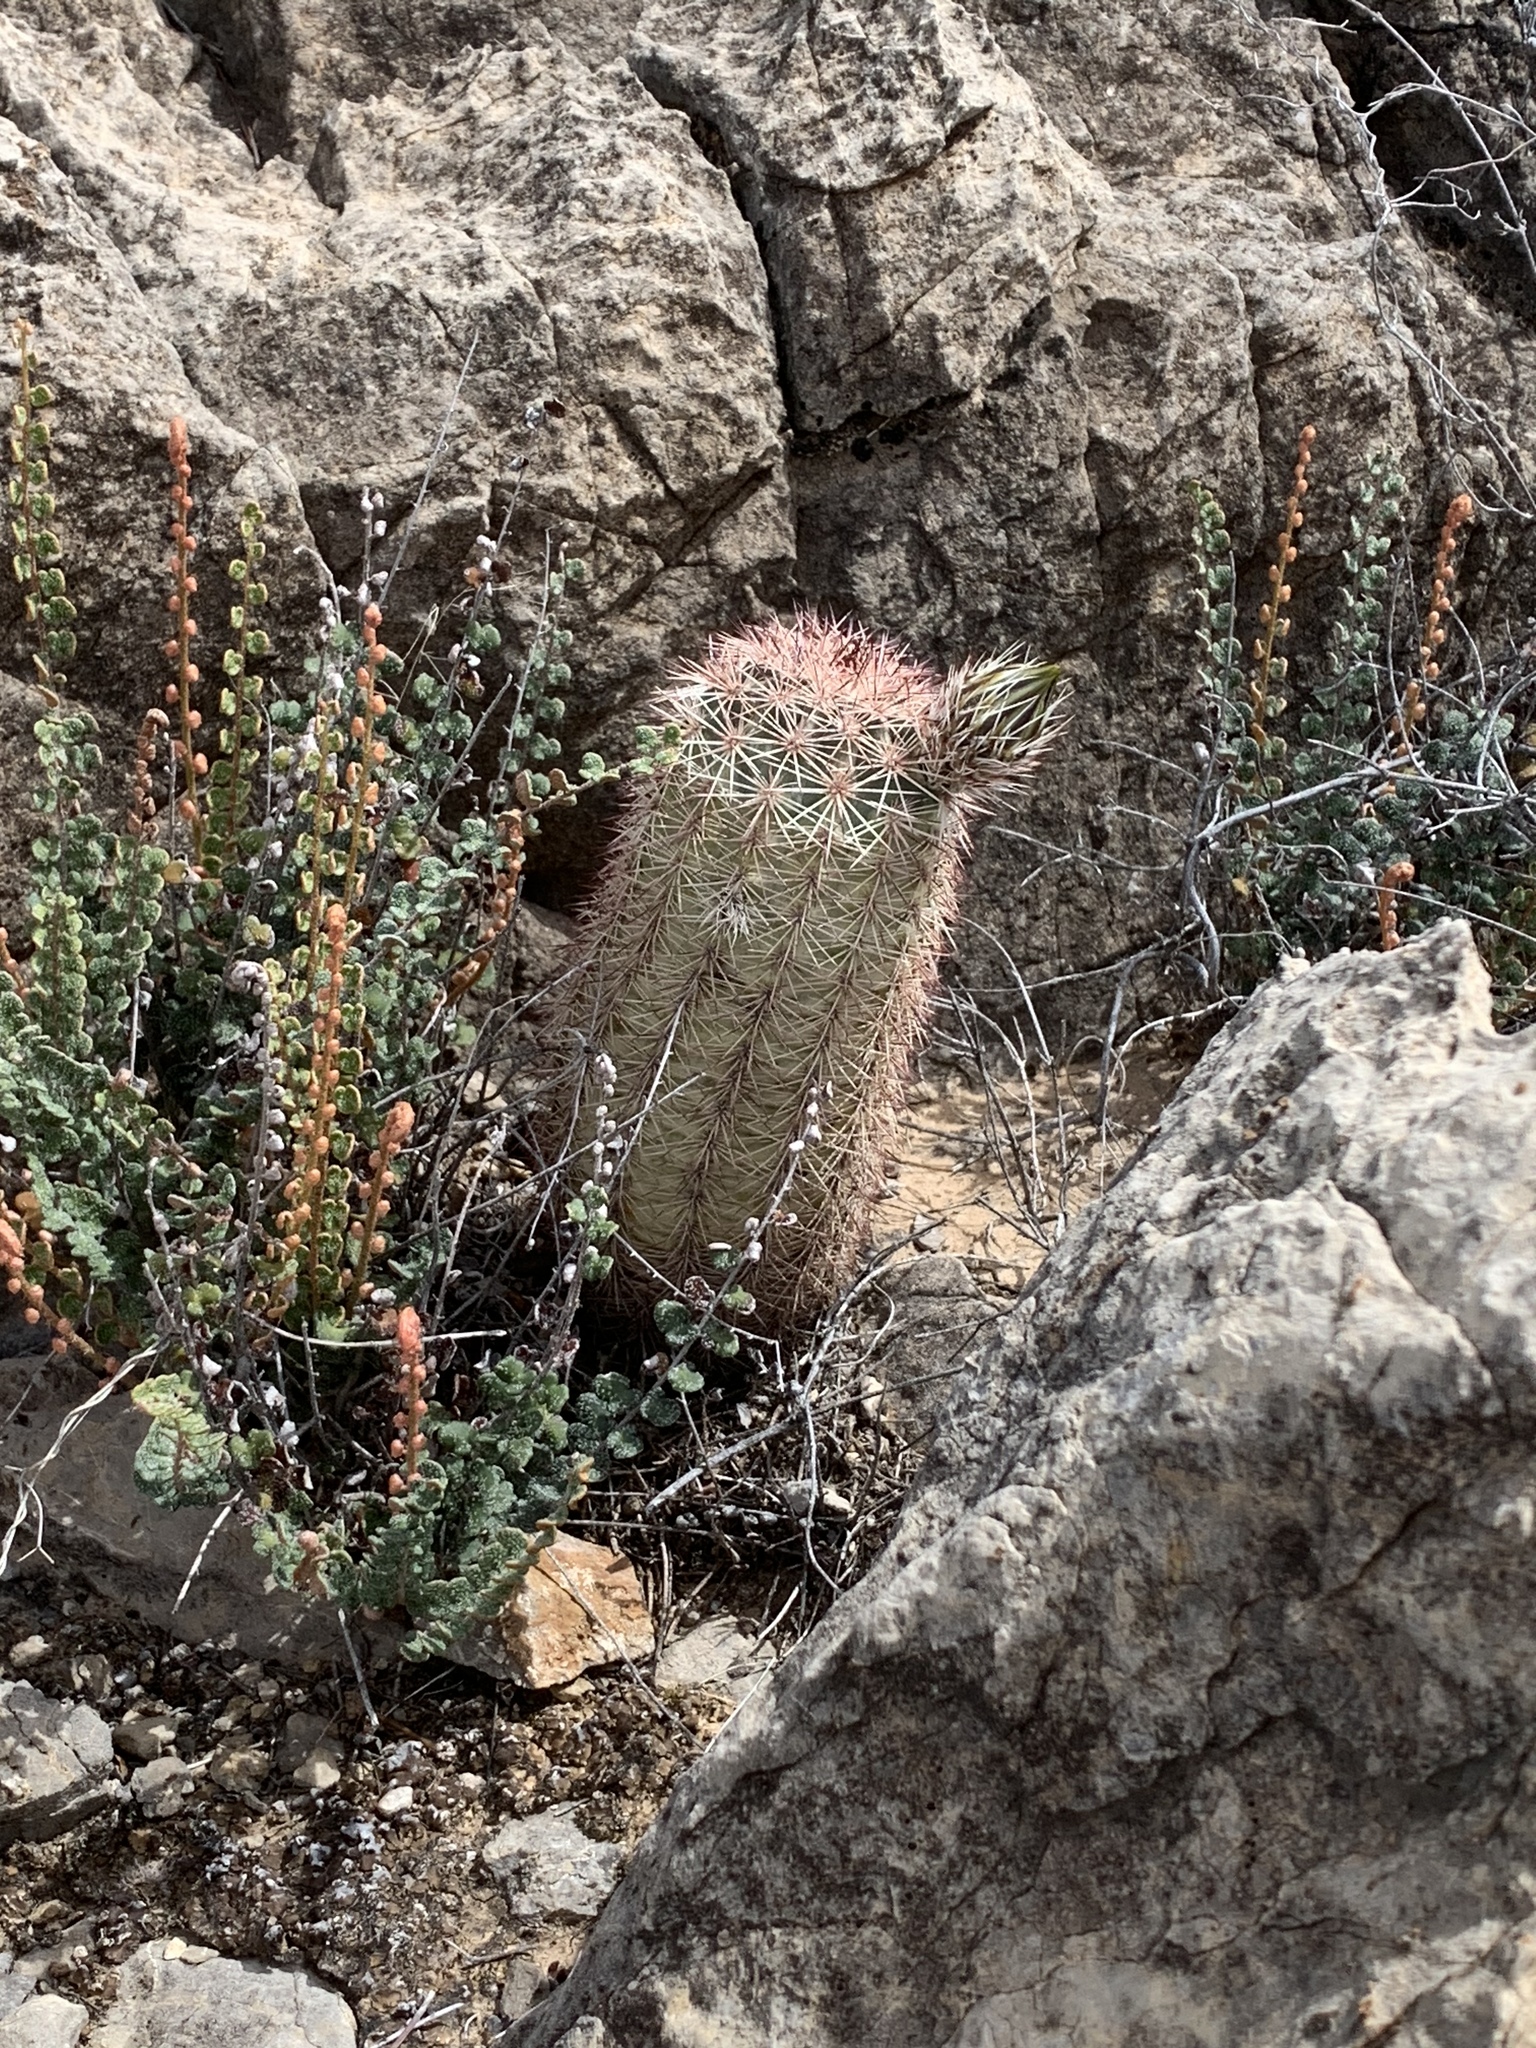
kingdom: Plantae
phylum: Tracheophyta
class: Magnoliopsida
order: Caryophyllales
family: Cactaceae
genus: Echinocereus
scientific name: Echinocereus dasyacanthus
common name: Spiny hedgehog cactus
